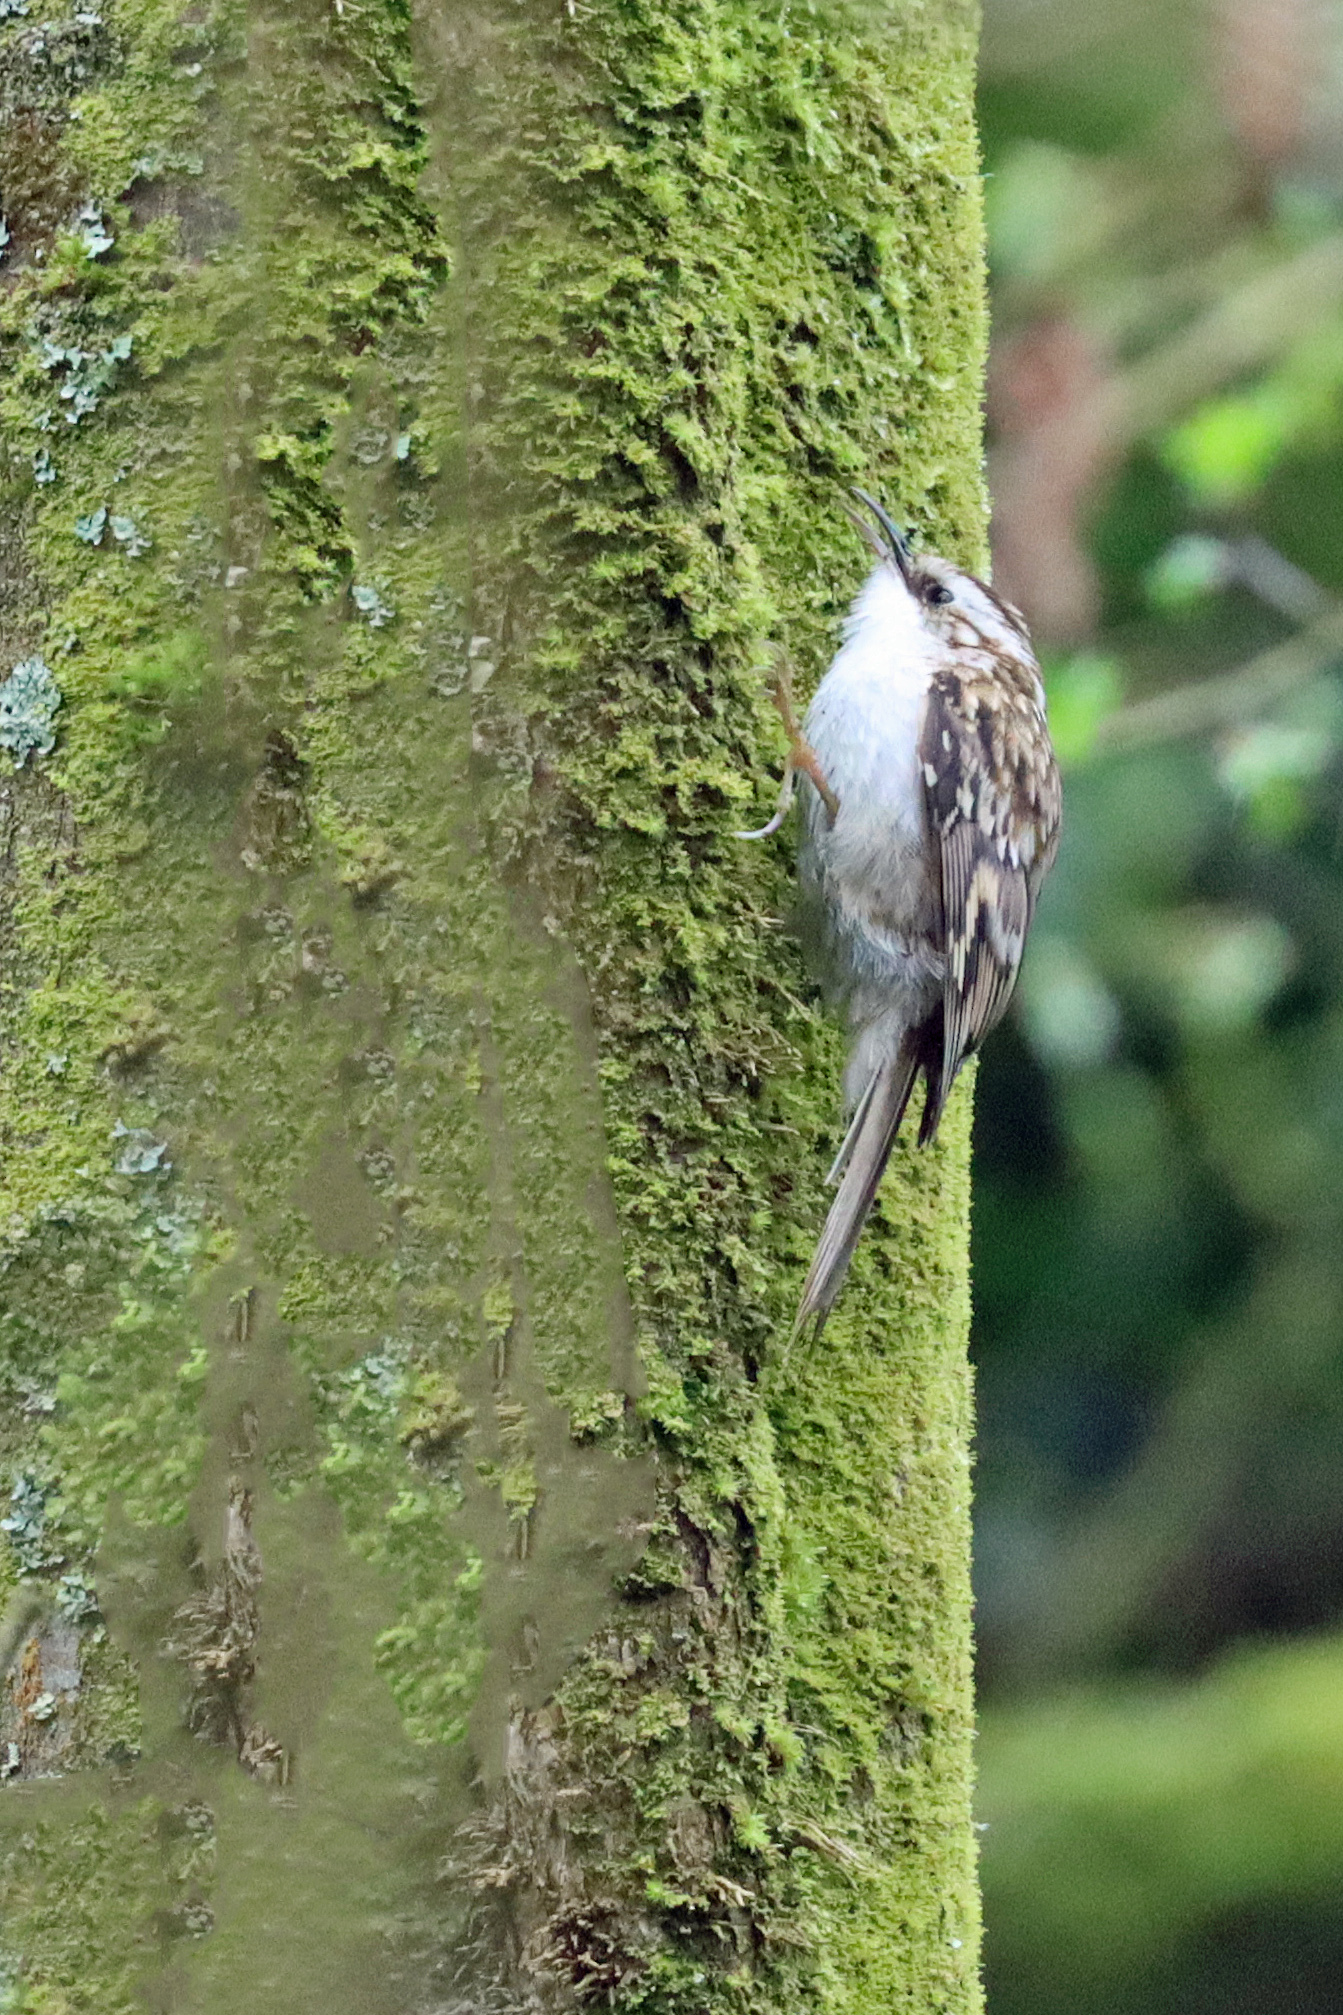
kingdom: Animalia
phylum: Chordata
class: Aves
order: Passeriformes
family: Certhiidae
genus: Certhia
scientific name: Certhia familiaris
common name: Eurasian treecreeper
